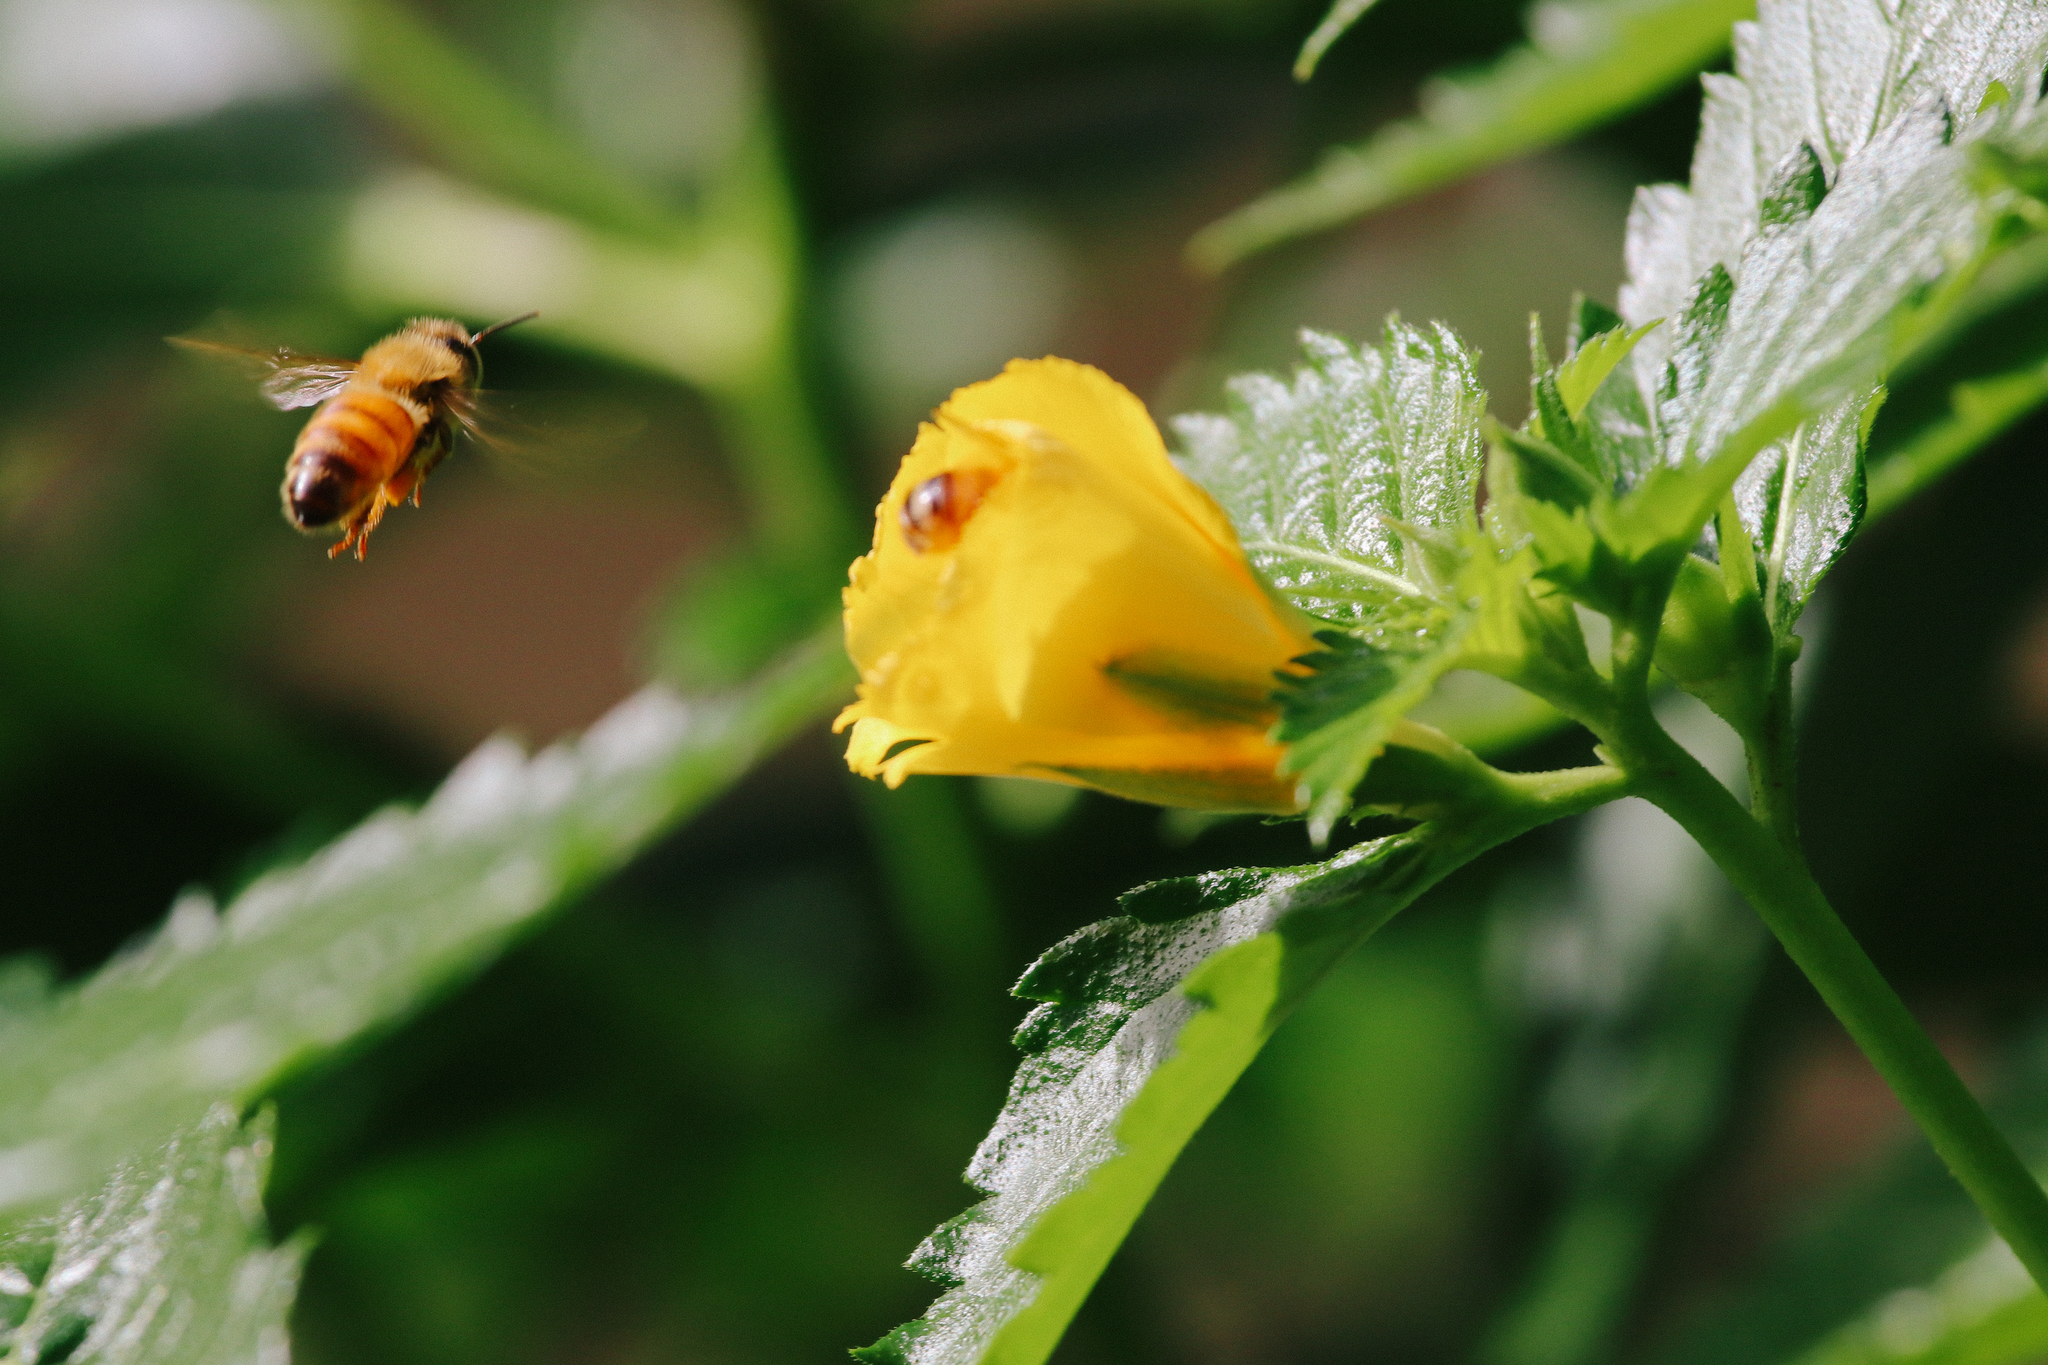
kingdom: Animalia
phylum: Arthropoda
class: Insecta
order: Hymenoptera
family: Apidae
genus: Apis
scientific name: Apis mellifera
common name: Honey bee
